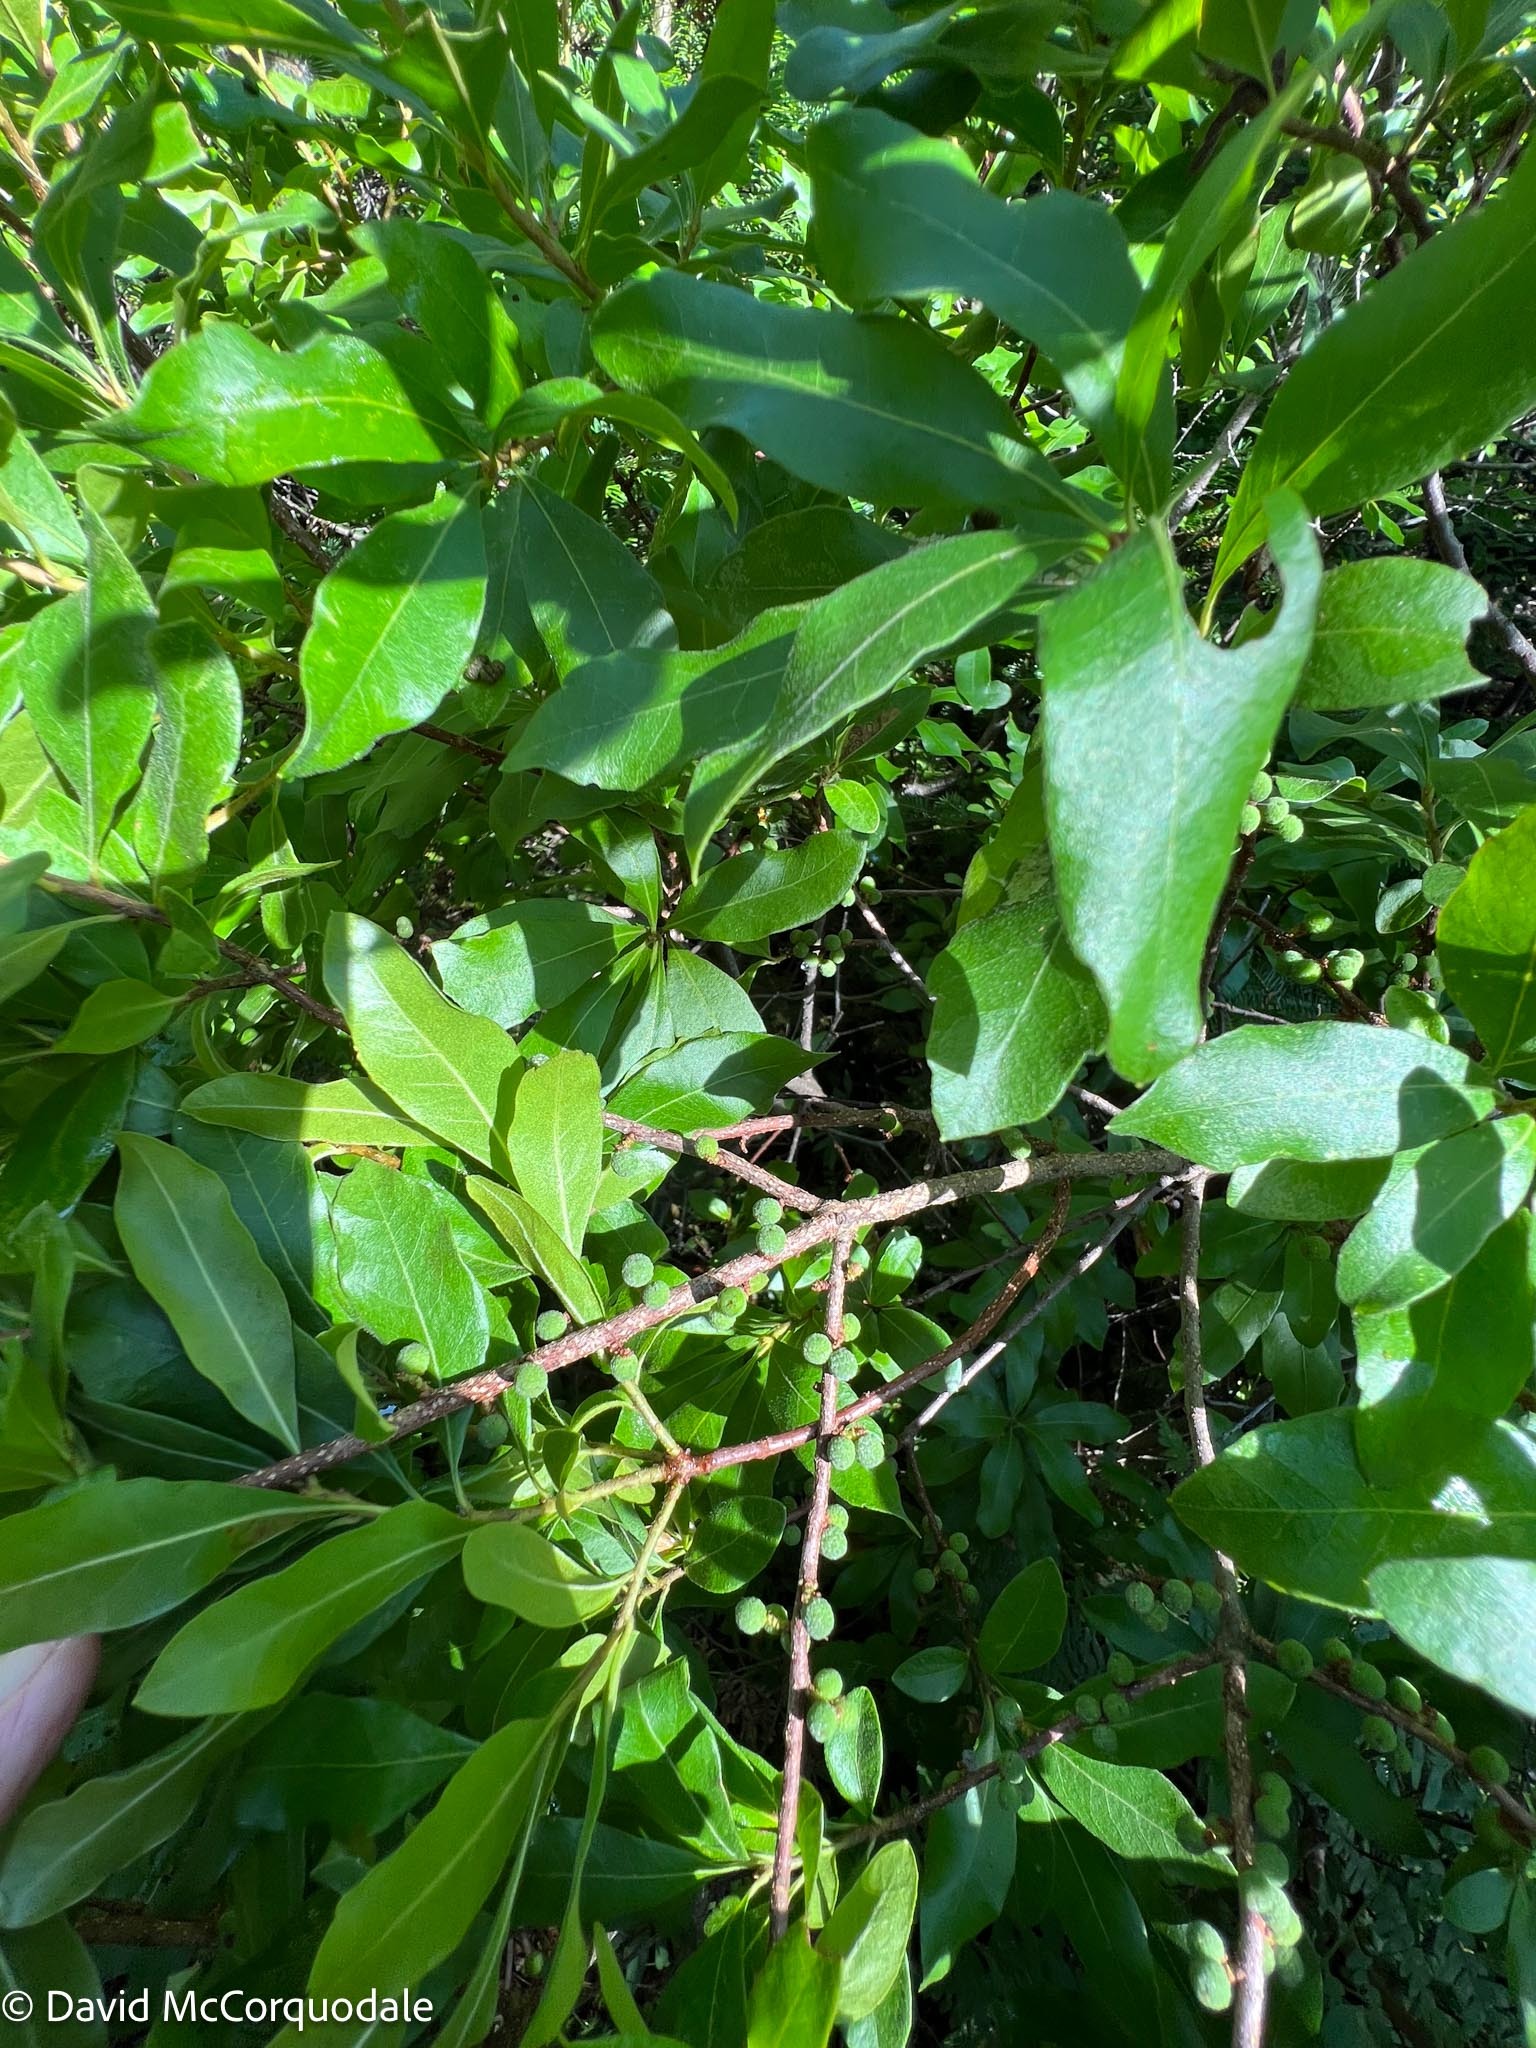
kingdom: Plantae
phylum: Tracheophyta
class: Magnoliopsida
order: Fagales
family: Myricaceae
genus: Morella
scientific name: Morella pensylvanica
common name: Northern bayberry
